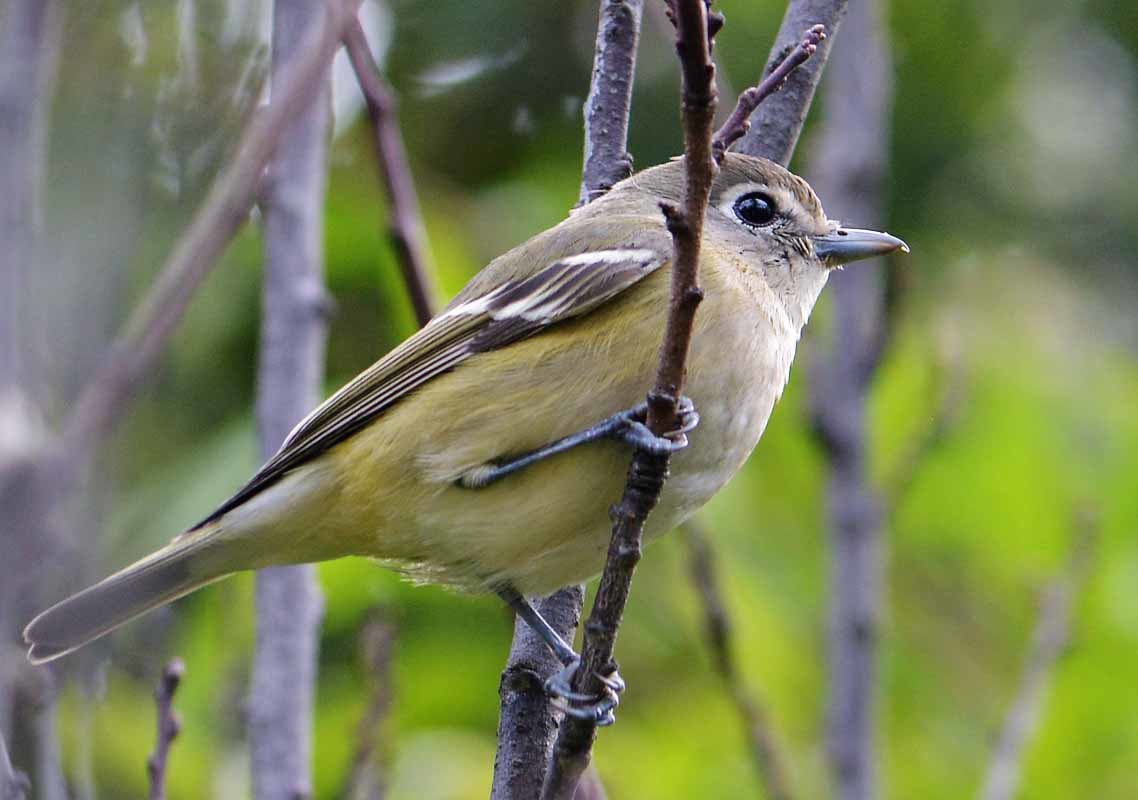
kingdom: Animalia
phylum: Chordata
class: Aves
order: Passeriformes
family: Vireonidae
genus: Vireo
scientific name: Vireo huttoni
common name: Hutton's vireo
